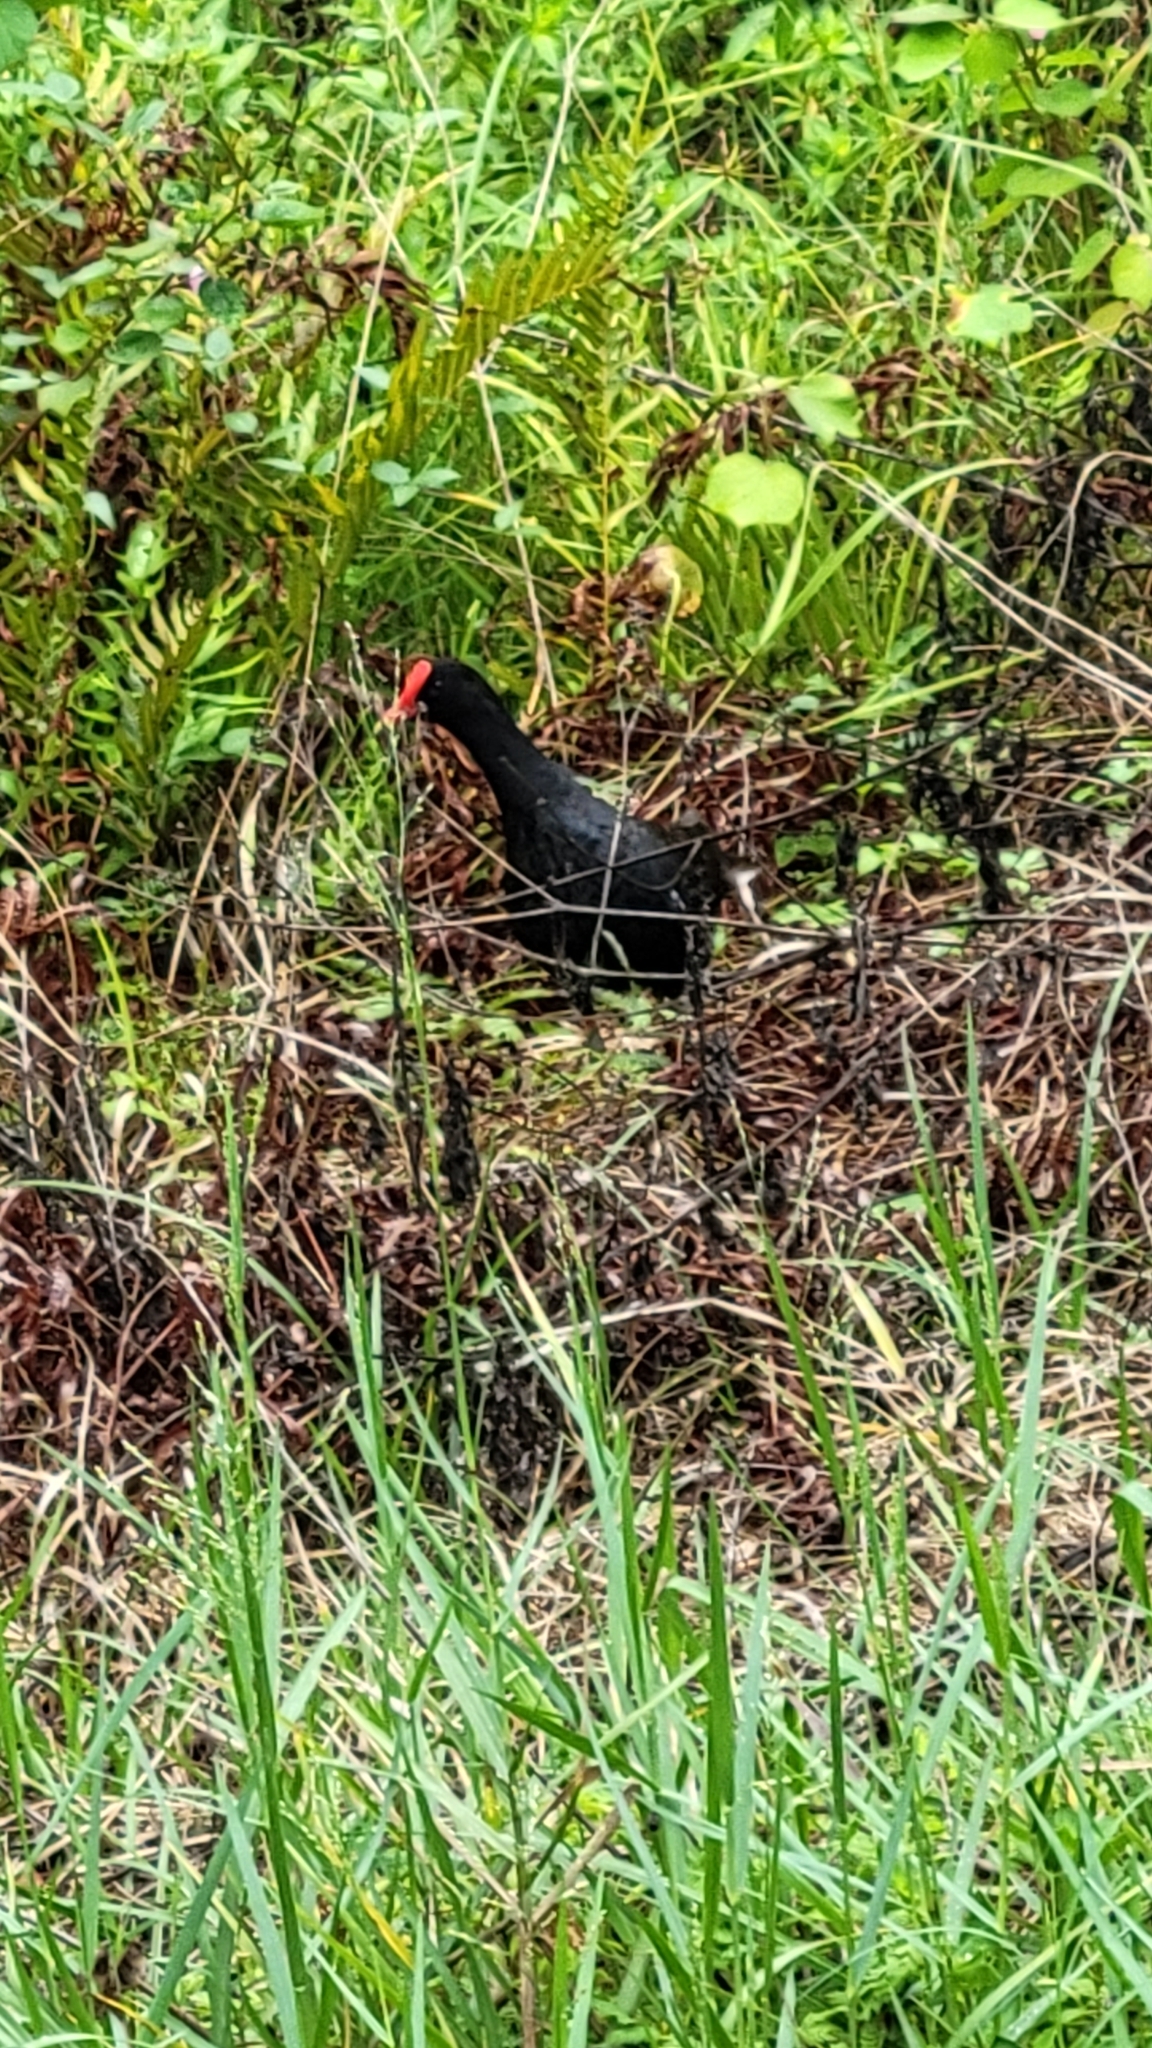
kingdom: Animalia
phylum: Chordata
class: Aves
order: Gruiformes
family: Rallidae
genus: Gallinula
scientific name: Gallinula chloropus
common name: Common moorhen
